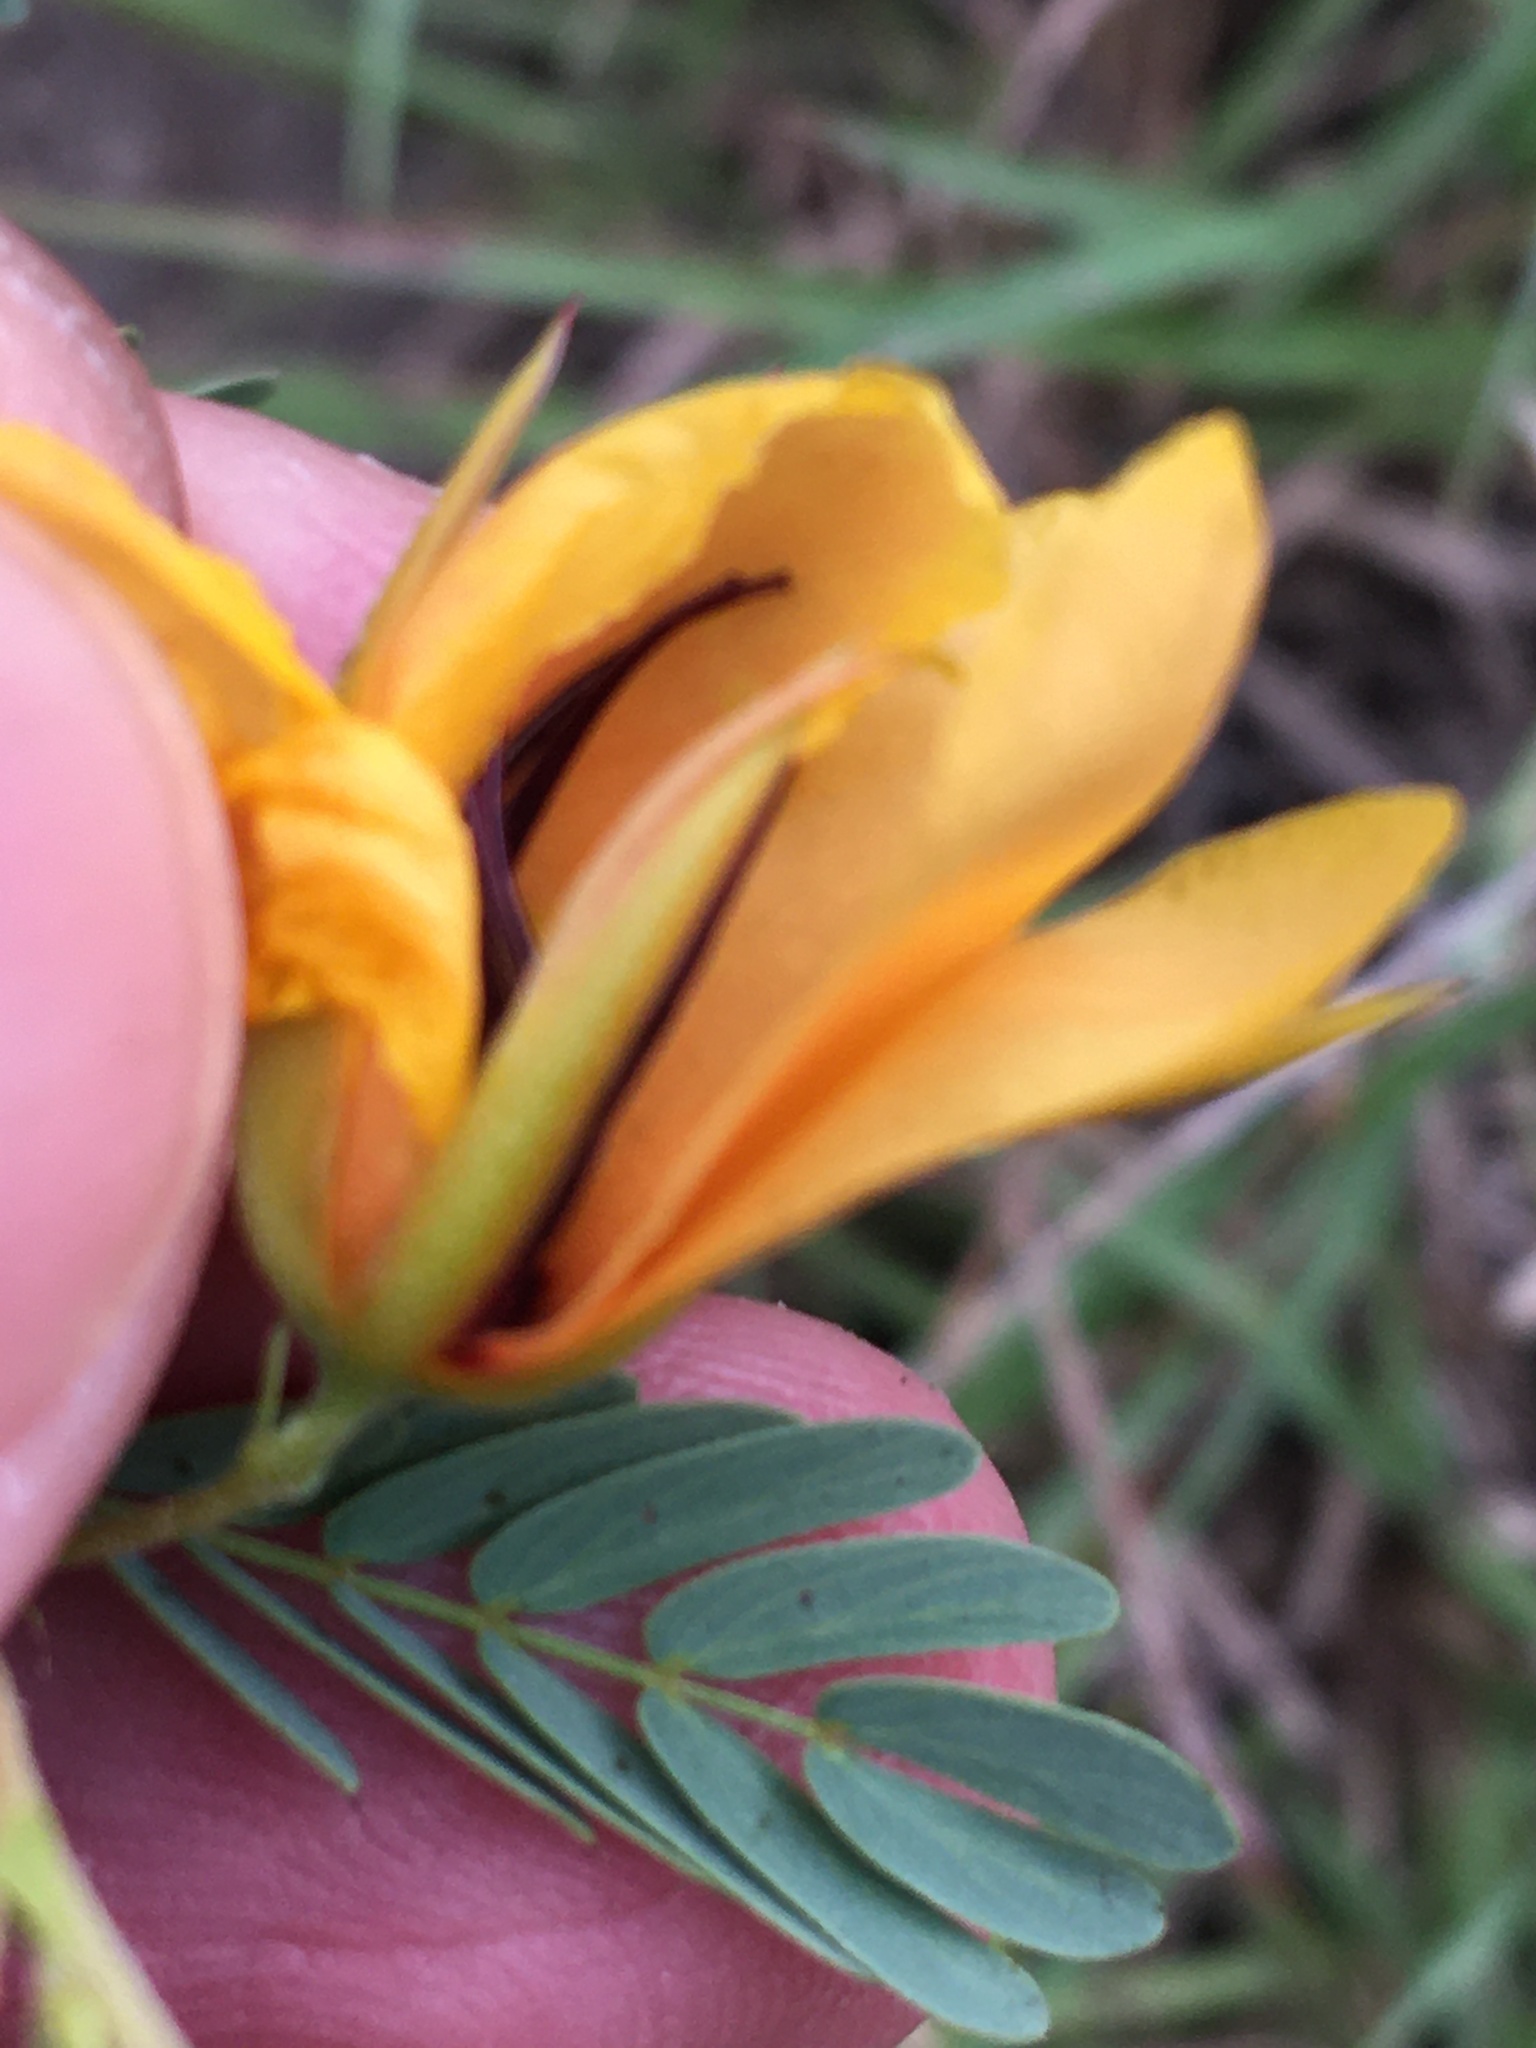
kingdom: Plantae
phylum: Tracheophyta
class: Magnoliopsida
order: Fabales
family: Fabaceae
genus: Chamaecrista
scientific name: Chamaecrista fasciculata
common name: Golden cassia
